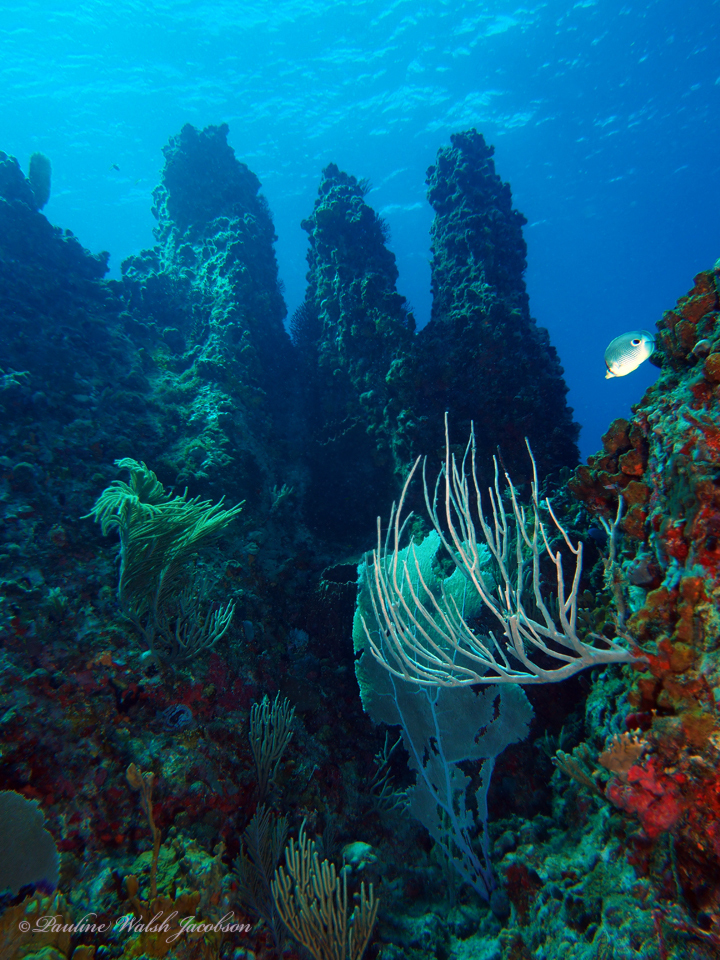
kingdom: Animalia
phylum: Chordata
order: Perciformes
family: Chaetodontidae
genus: Chaetodon
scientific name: Chaetodon capistratus
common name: Kete
